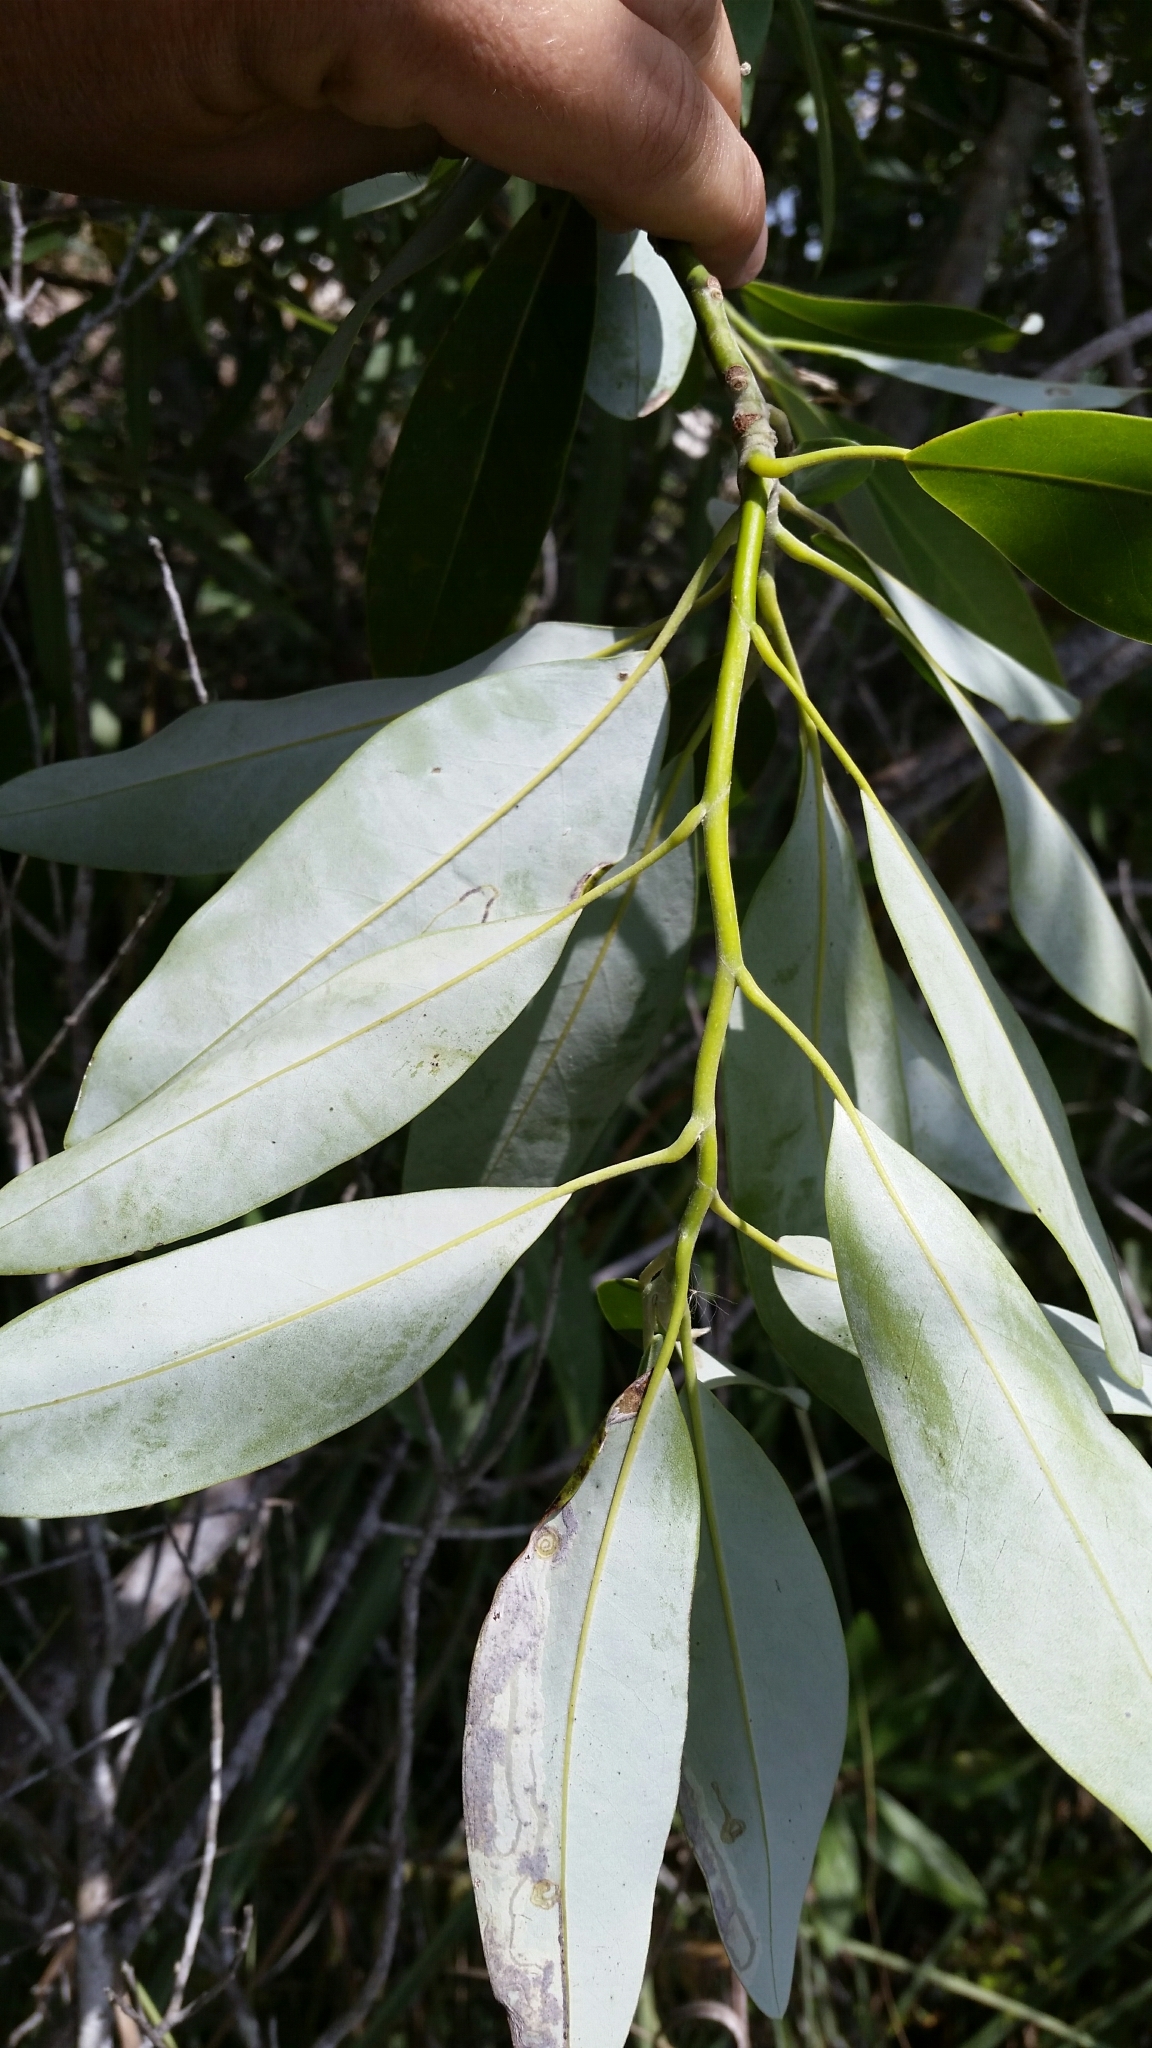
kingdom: Plantae
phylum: Tracheophyta
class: Magnoliopsida
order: Magnoliales
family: Magnoliaceae
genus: Magnolia
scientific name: Magnolia virginiana
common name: Swamp bay
